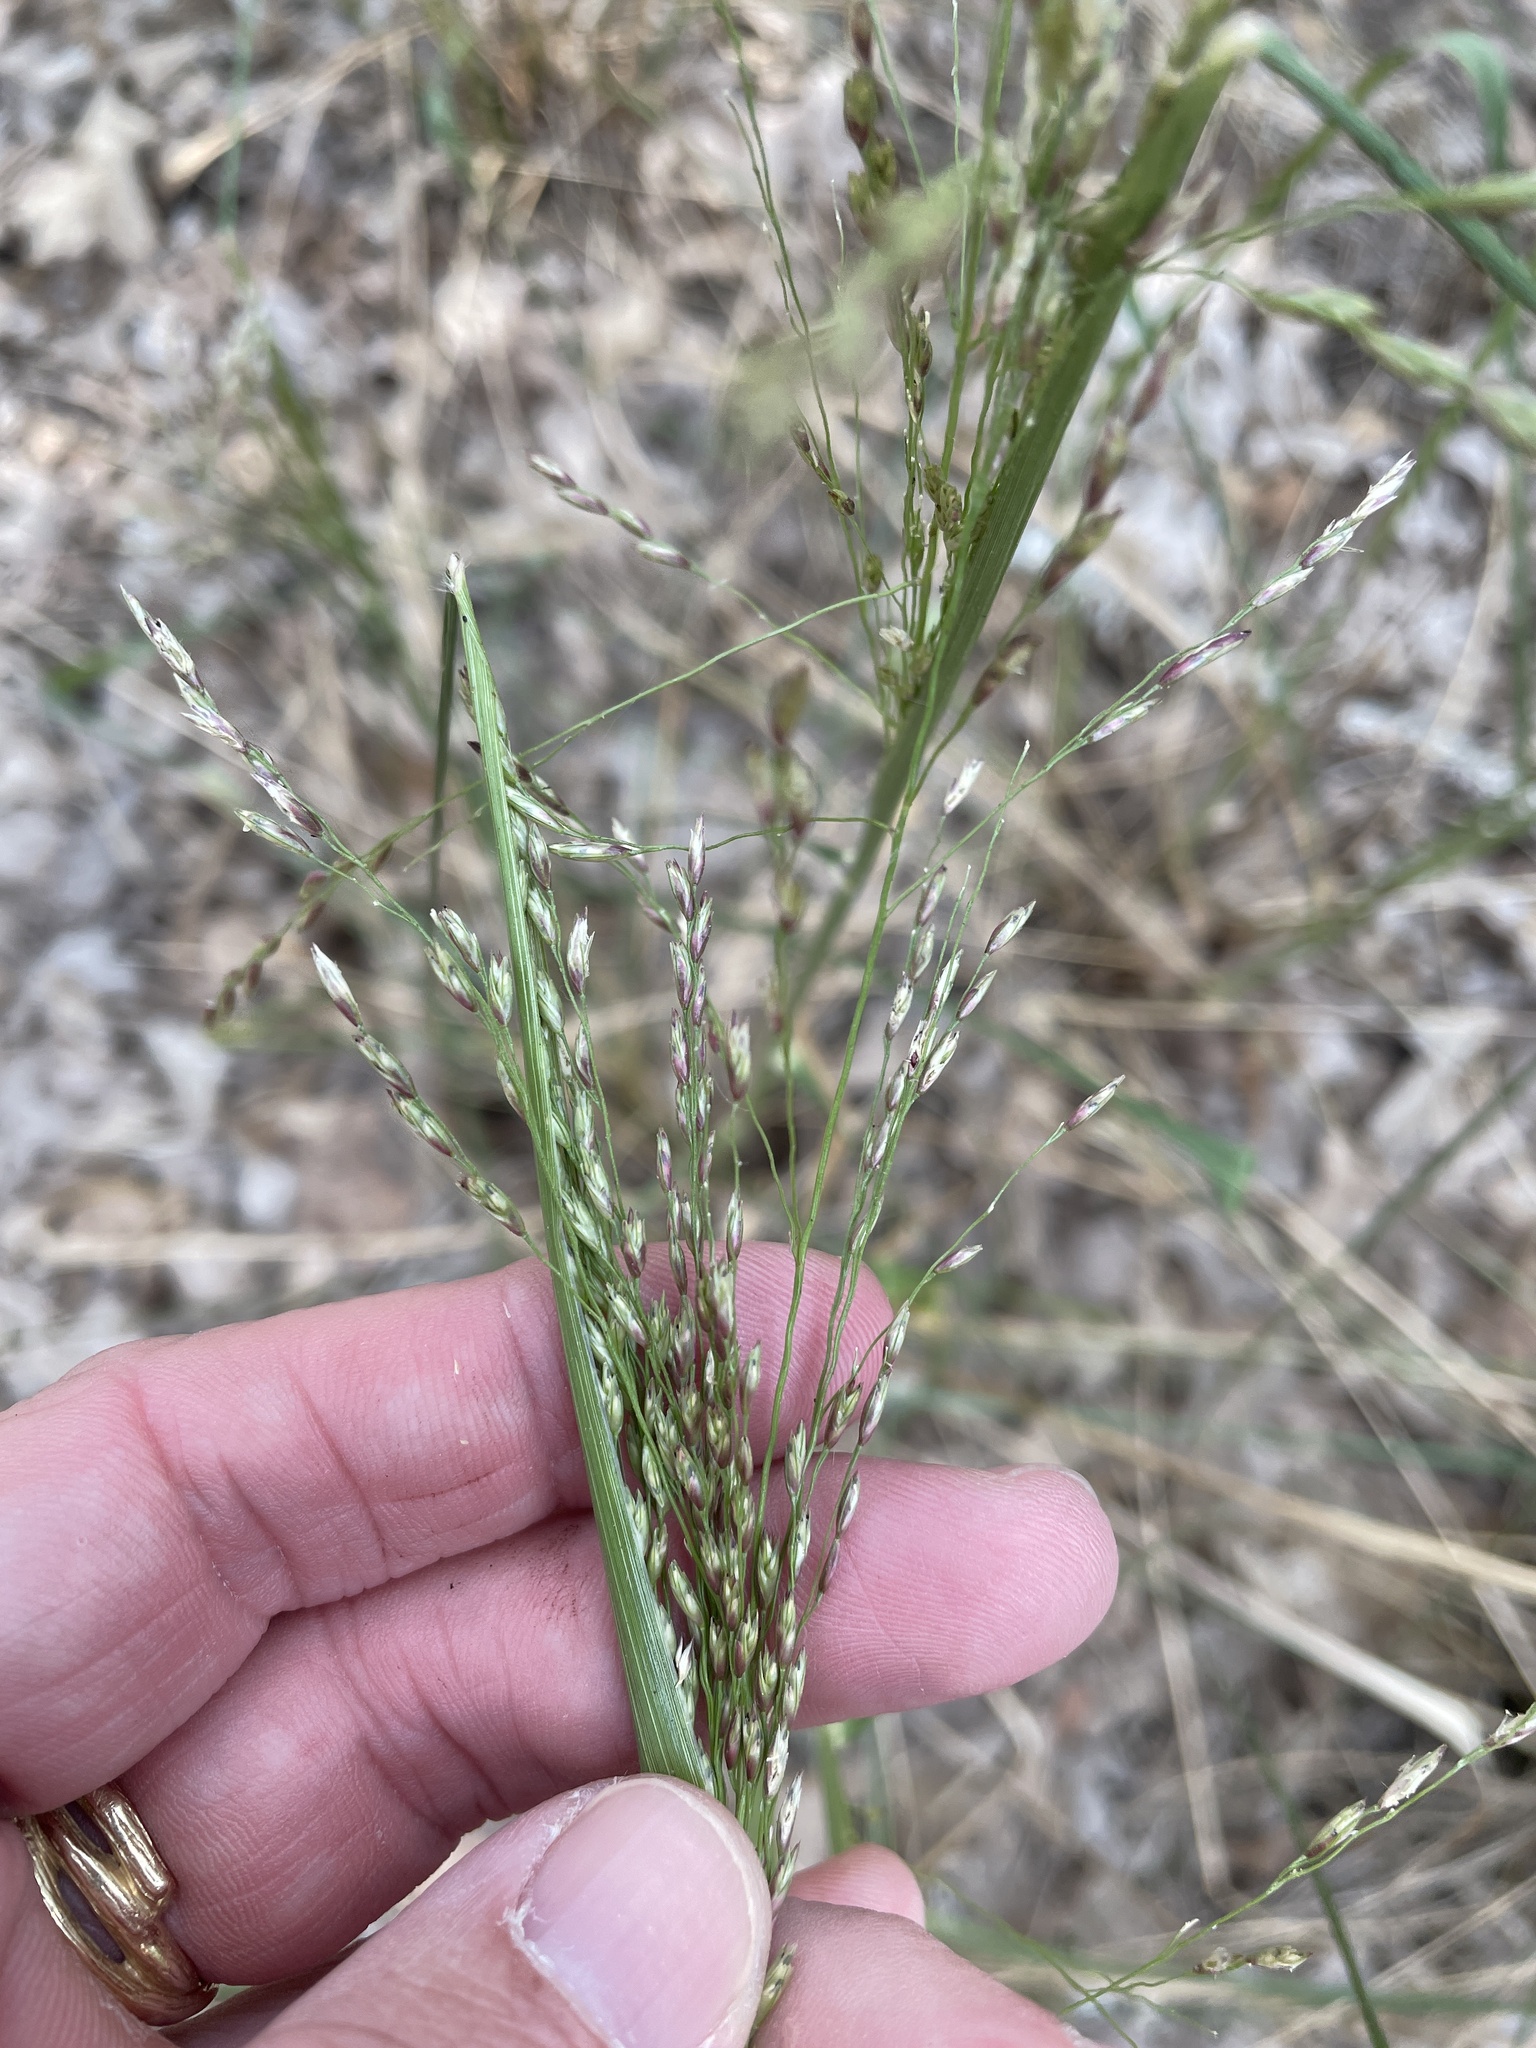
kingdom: Plantae
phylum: Tracheophyta
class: Liliopsida
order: Poales
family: Poaceae
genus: Tridens
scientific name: Tridens flavus
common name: Purpletop
